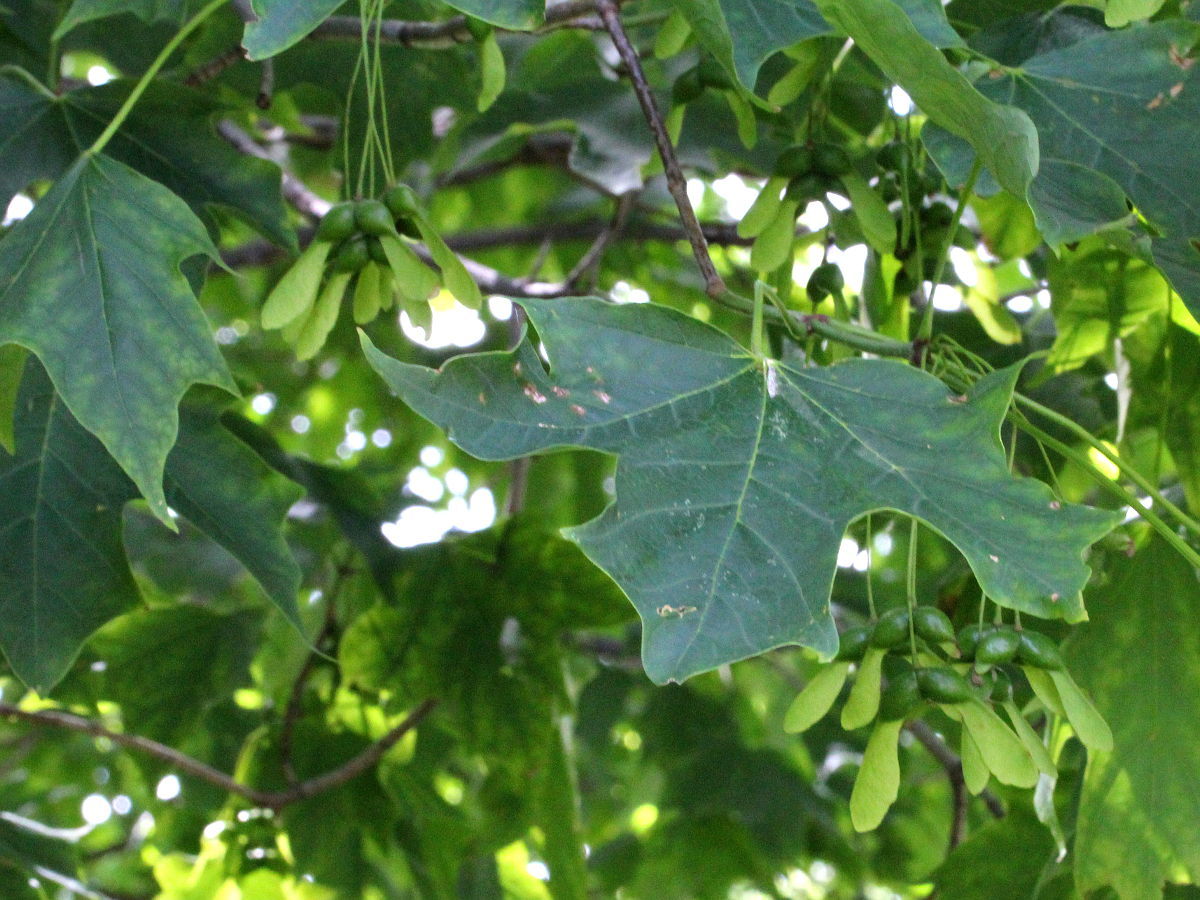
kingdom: Plantae
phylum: Tracheophyta
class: Magnoliopsida
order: Sapindales
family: Sapindaceae
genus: Acer
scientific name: Acer nigrum
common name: Black maple
